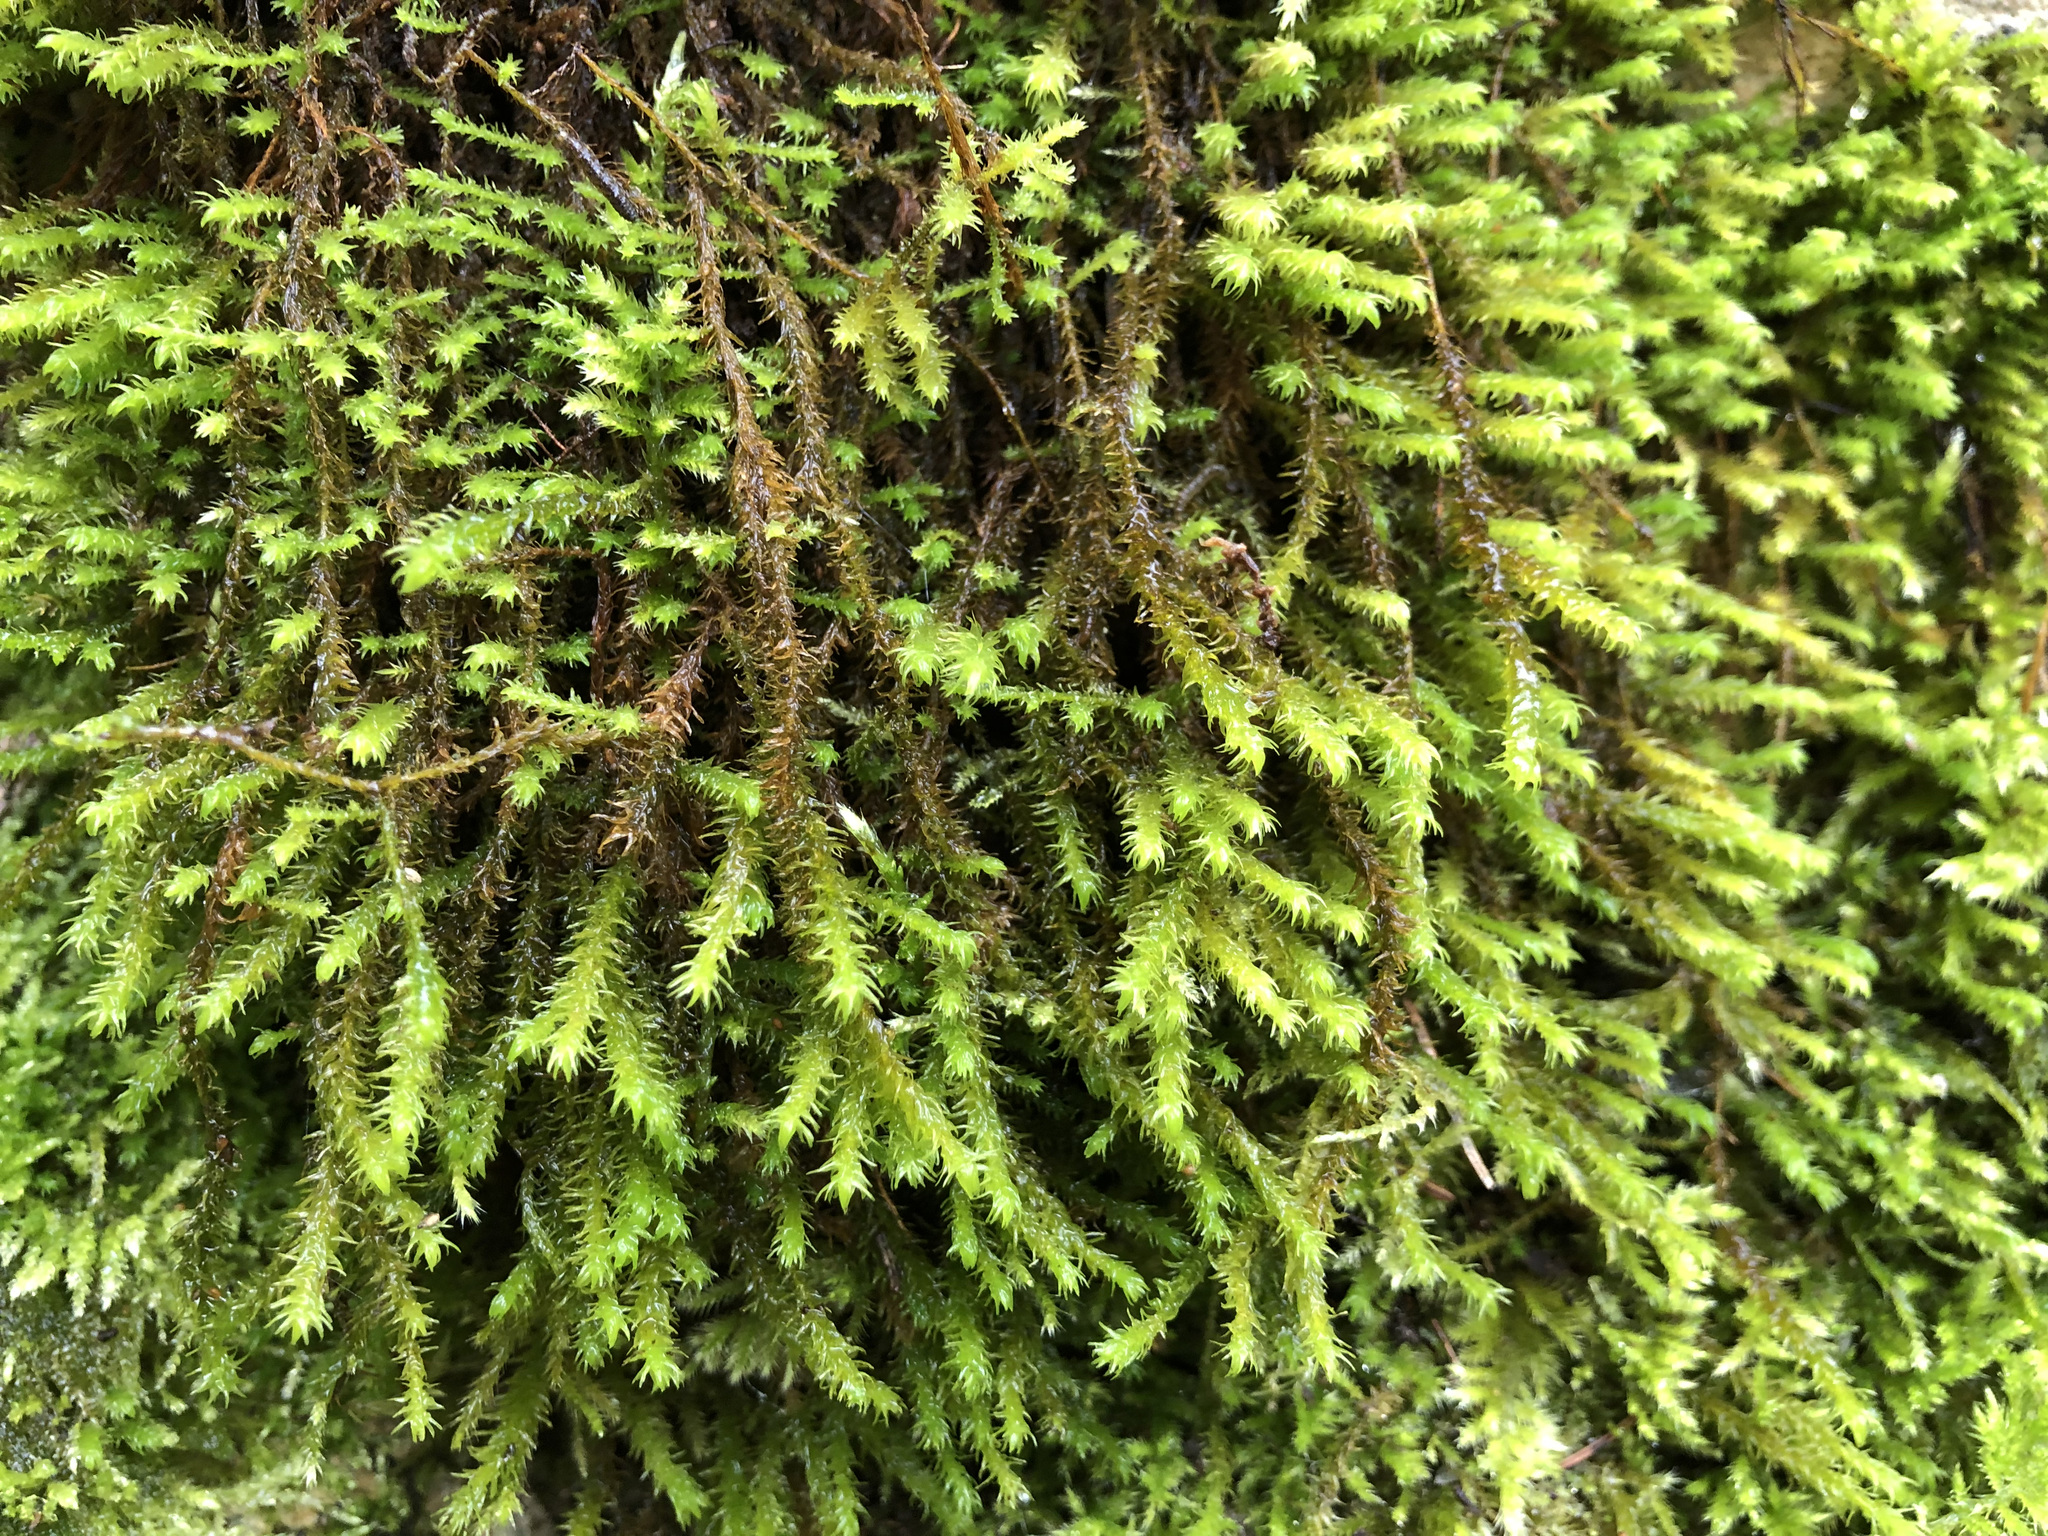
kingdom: Plantae
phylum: Bryophyta
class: Bryopsida
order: Hypnales
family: Anomodontaceae
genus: Anomodon
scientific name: Anomodon viticulosus
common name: Tall anomodon
